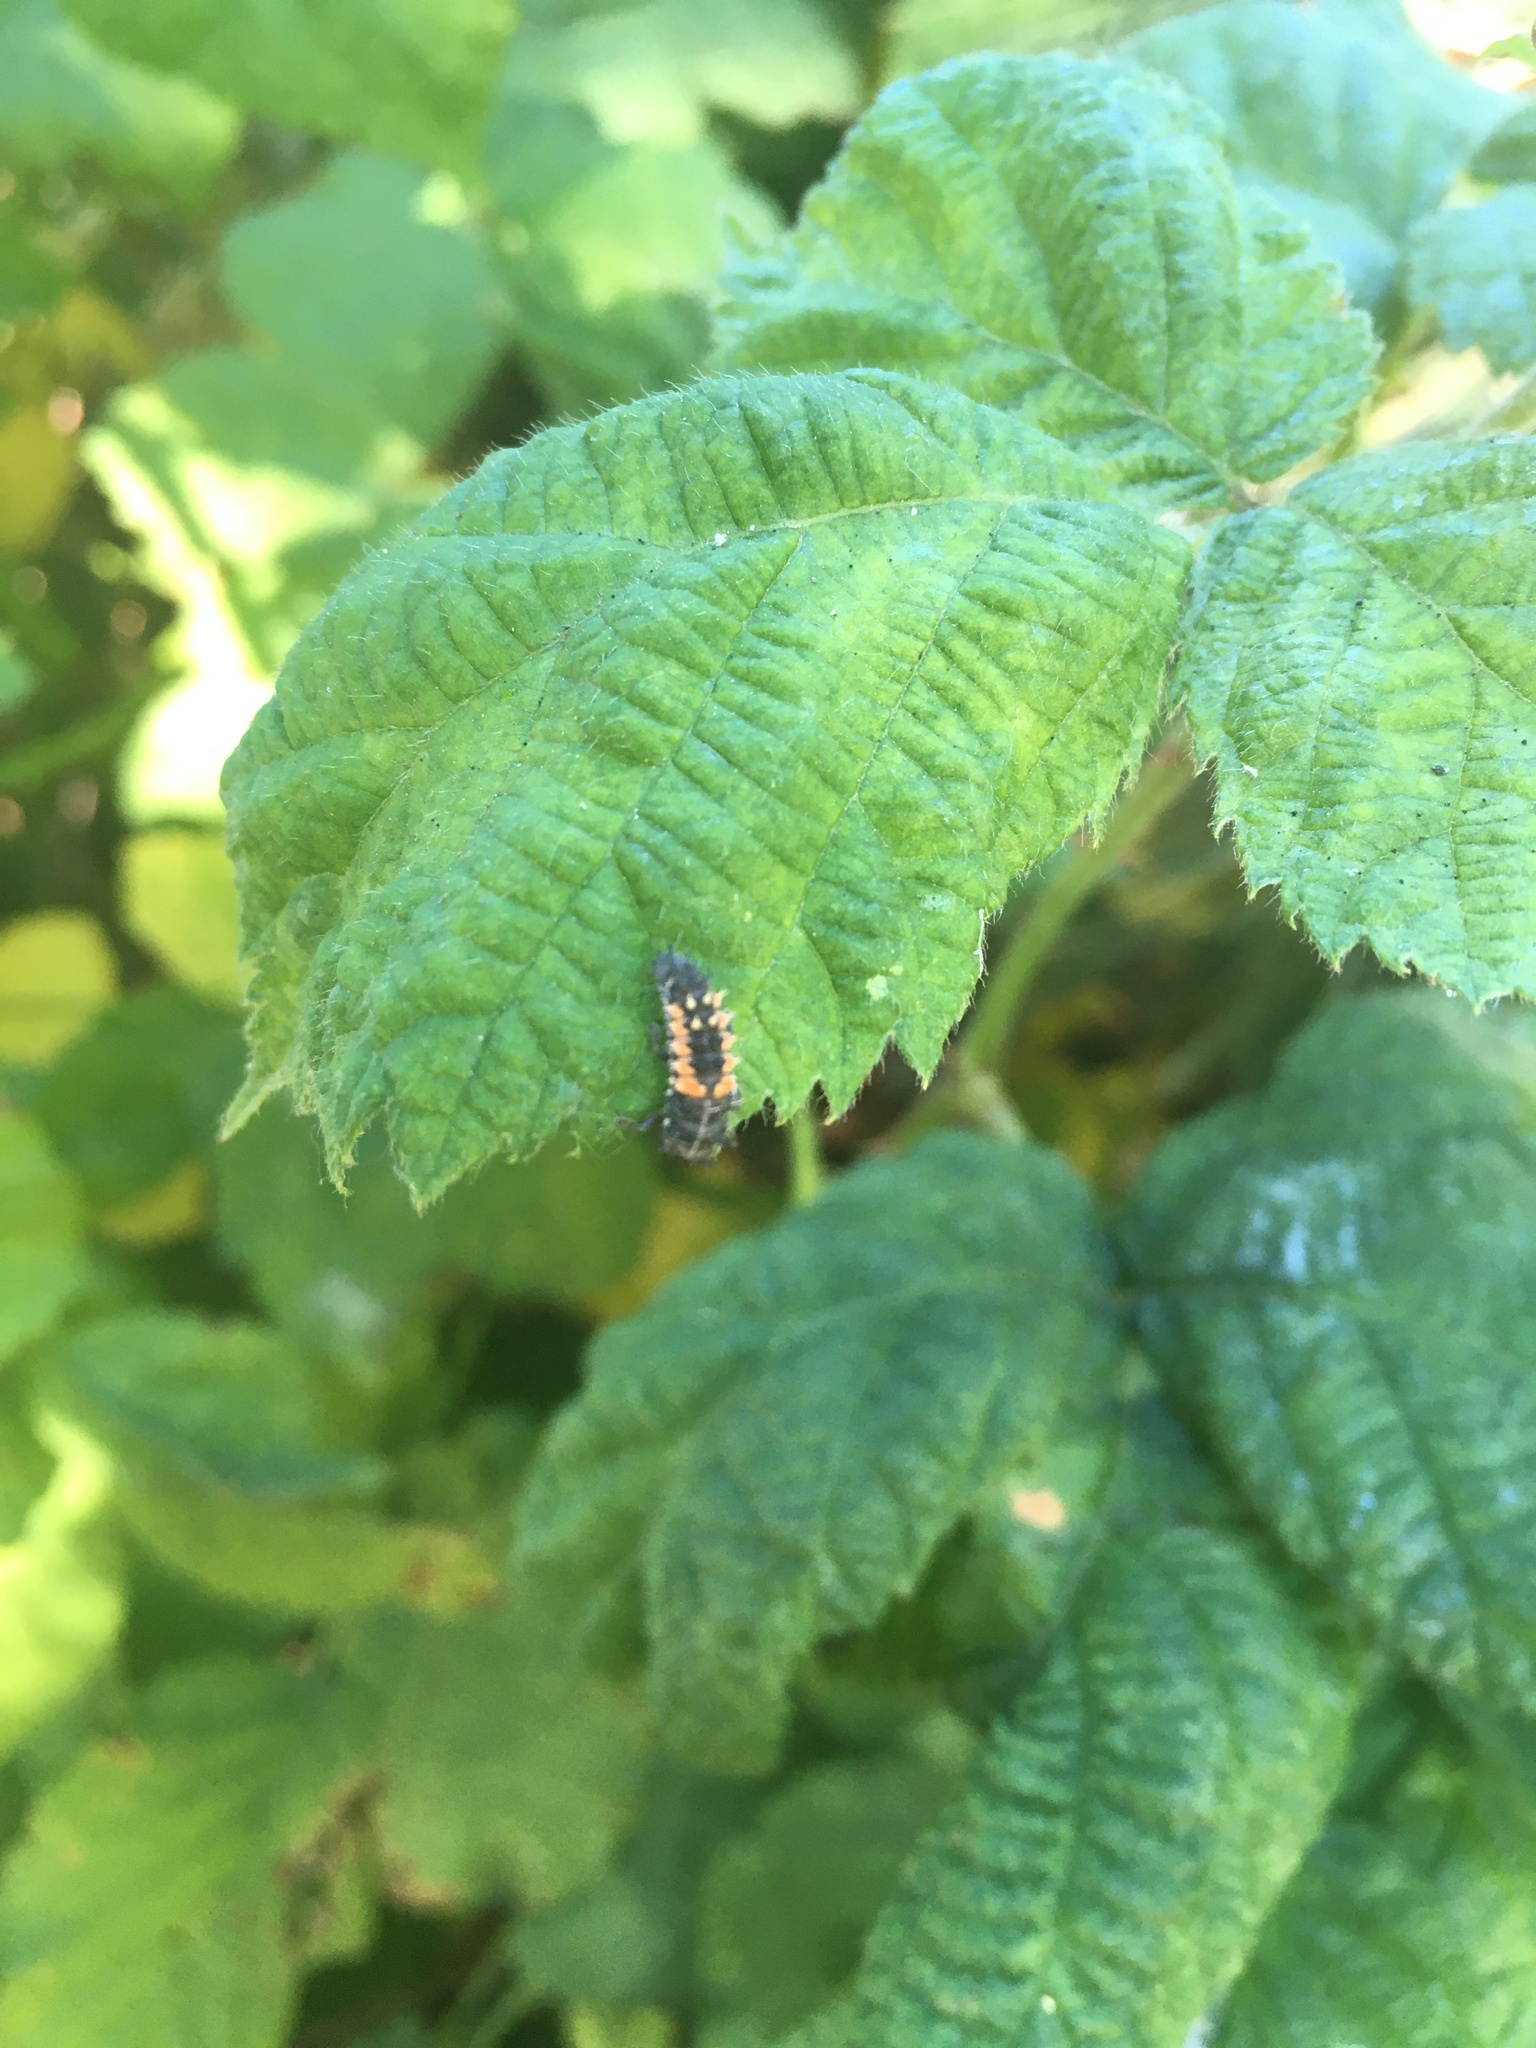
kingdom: Animalia
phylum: Arthropoda
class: Insecta
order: Coleoptera
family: Coccinellidae
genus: Harmonia
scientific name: Harmonia axyridis
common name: Harlequin ladybird
